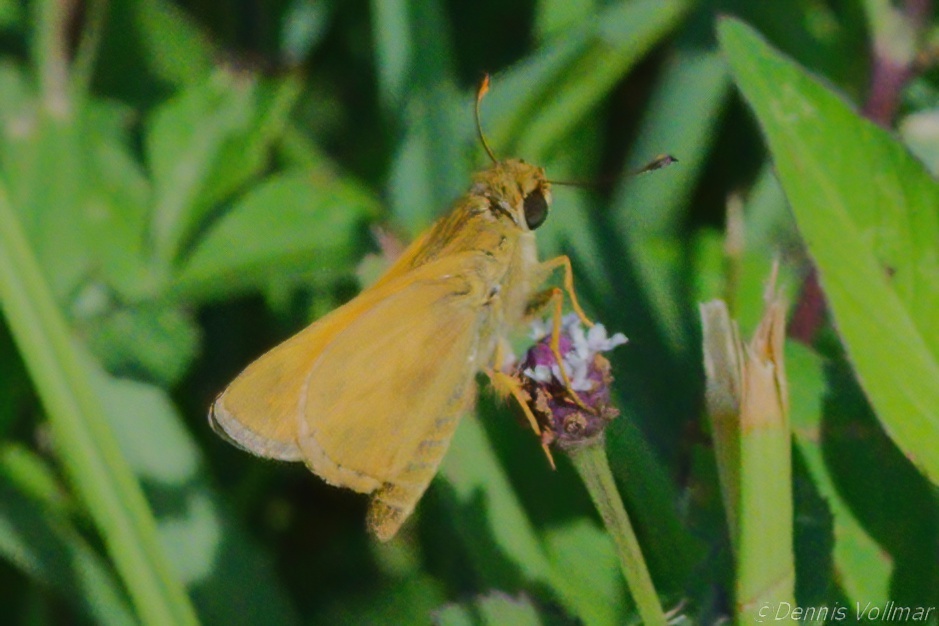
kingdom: Animalia
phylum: Arthropoda
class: Insecta
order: Lepidoptera
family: Hesperiidae
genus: Atalopedes
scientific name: Atalopedes
